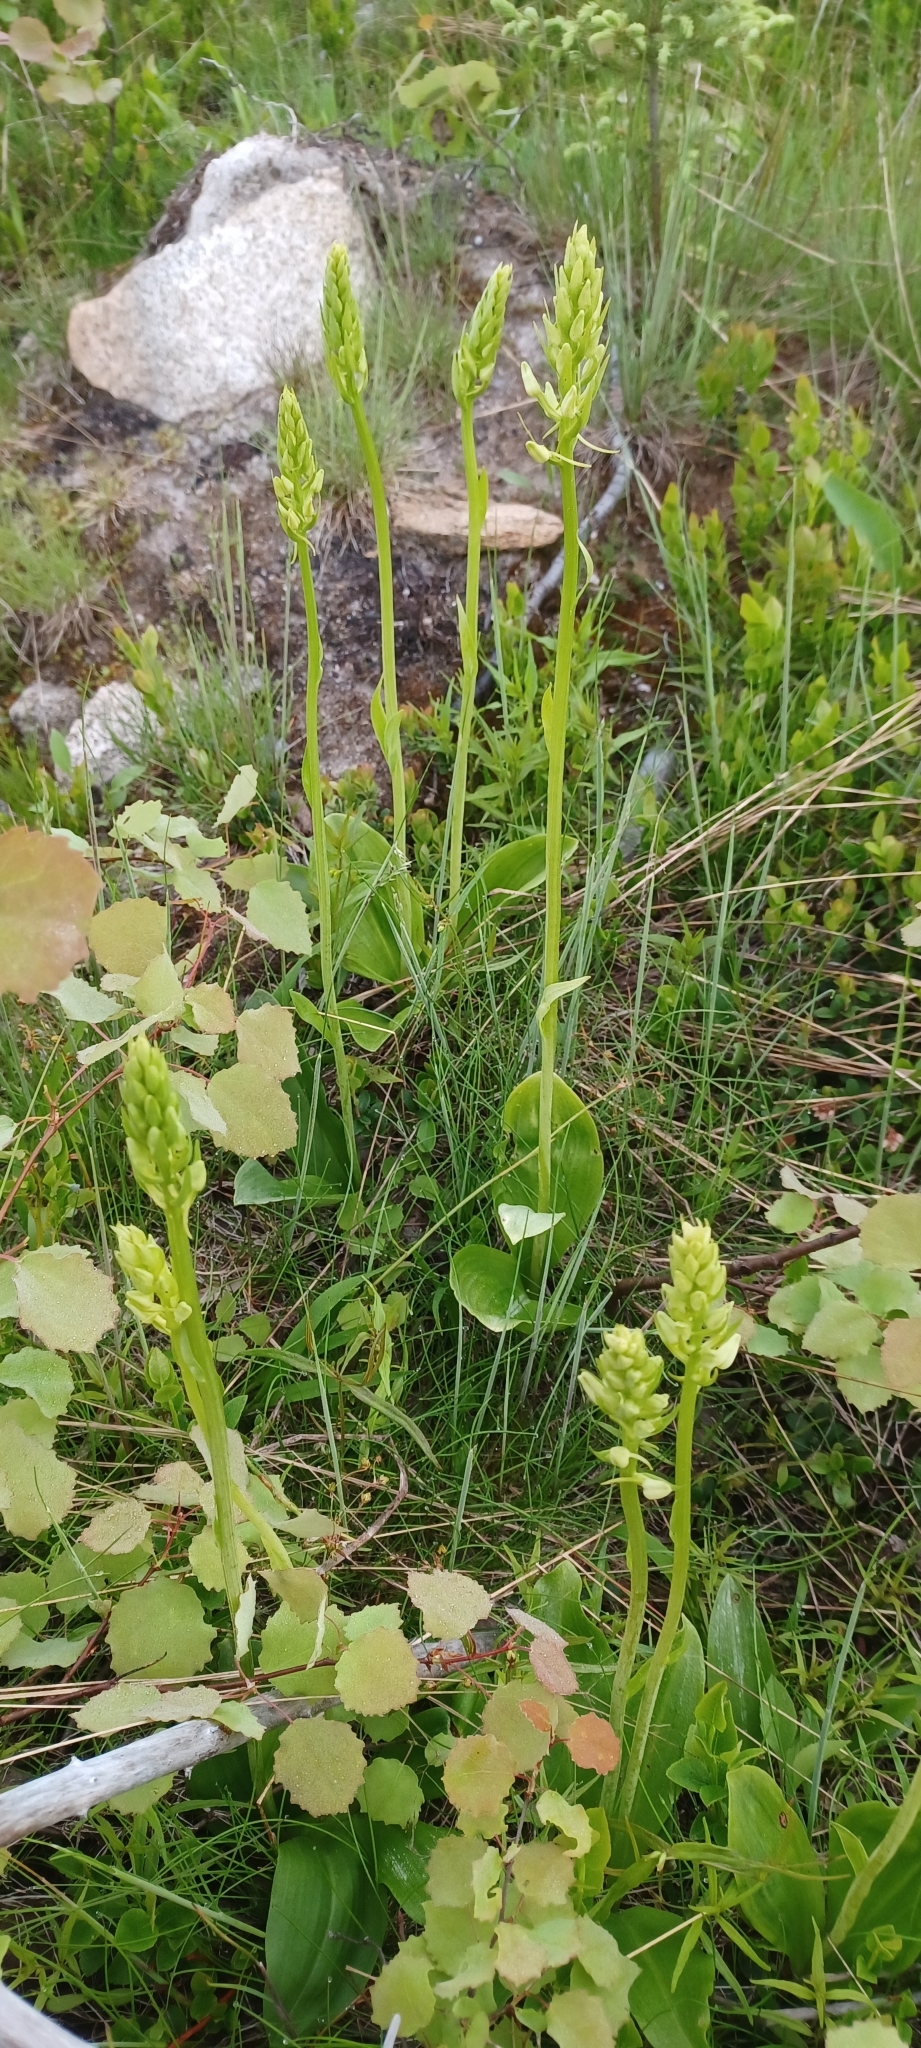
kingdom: Plantae
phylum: Tracheophyta
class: Liliopsida
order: Asparagales
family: Orchidaceae
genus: Platanthera
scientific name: Platanthera bifolia
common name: Lesser butterfly-orchid
